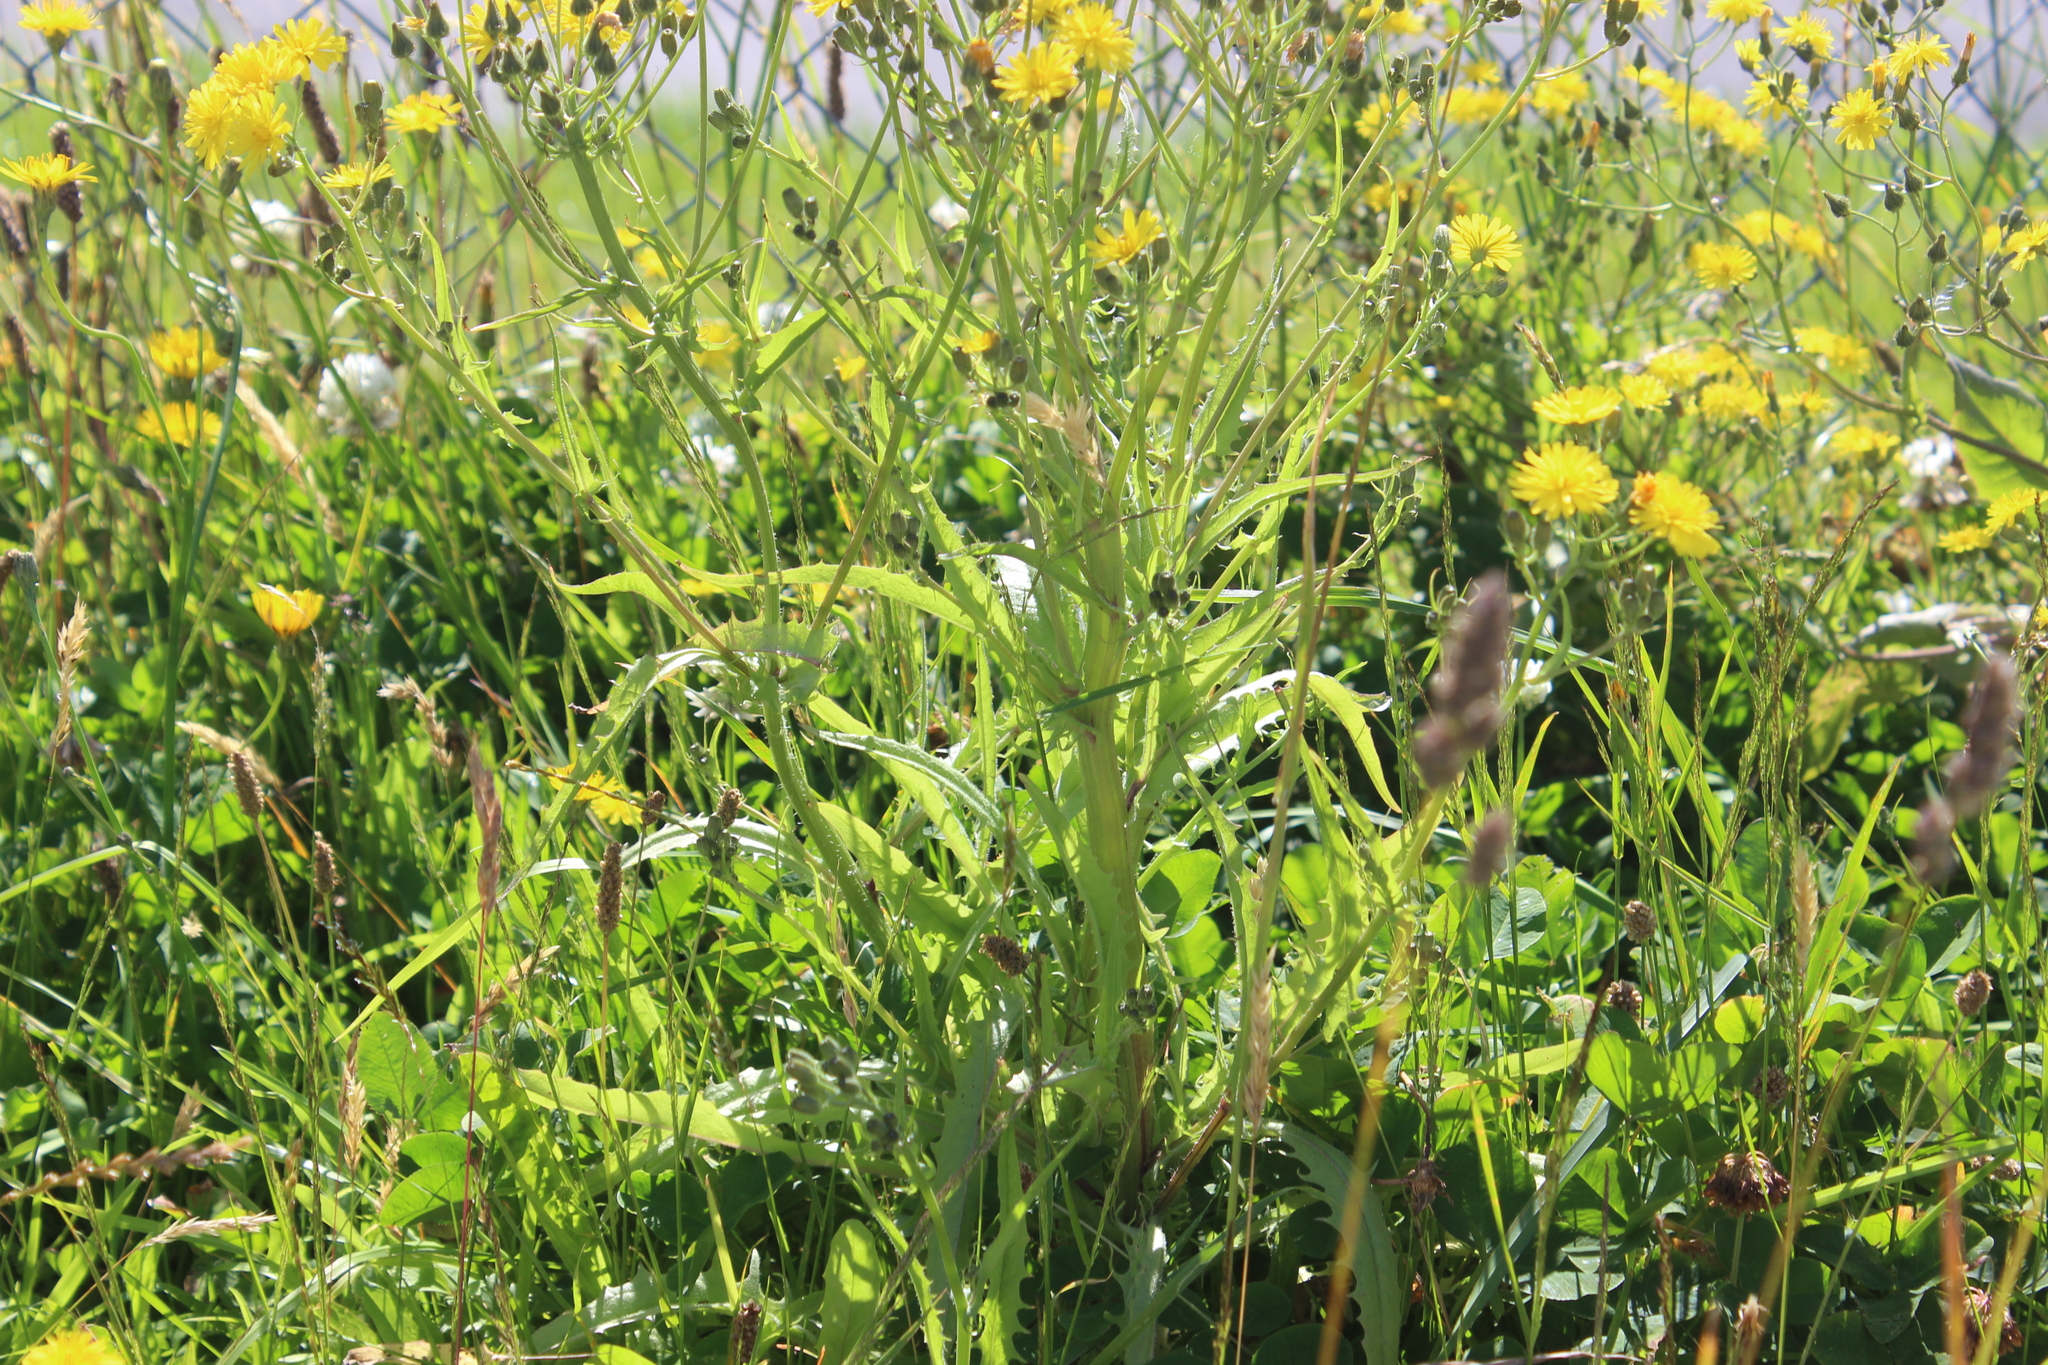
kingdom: Plantae
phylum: Tracheophyta
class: Magnoliopsida
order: Asterales
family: Asteraceae
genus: Crepis
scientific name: Crepis capillaris
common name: Smooth hawksbeard
